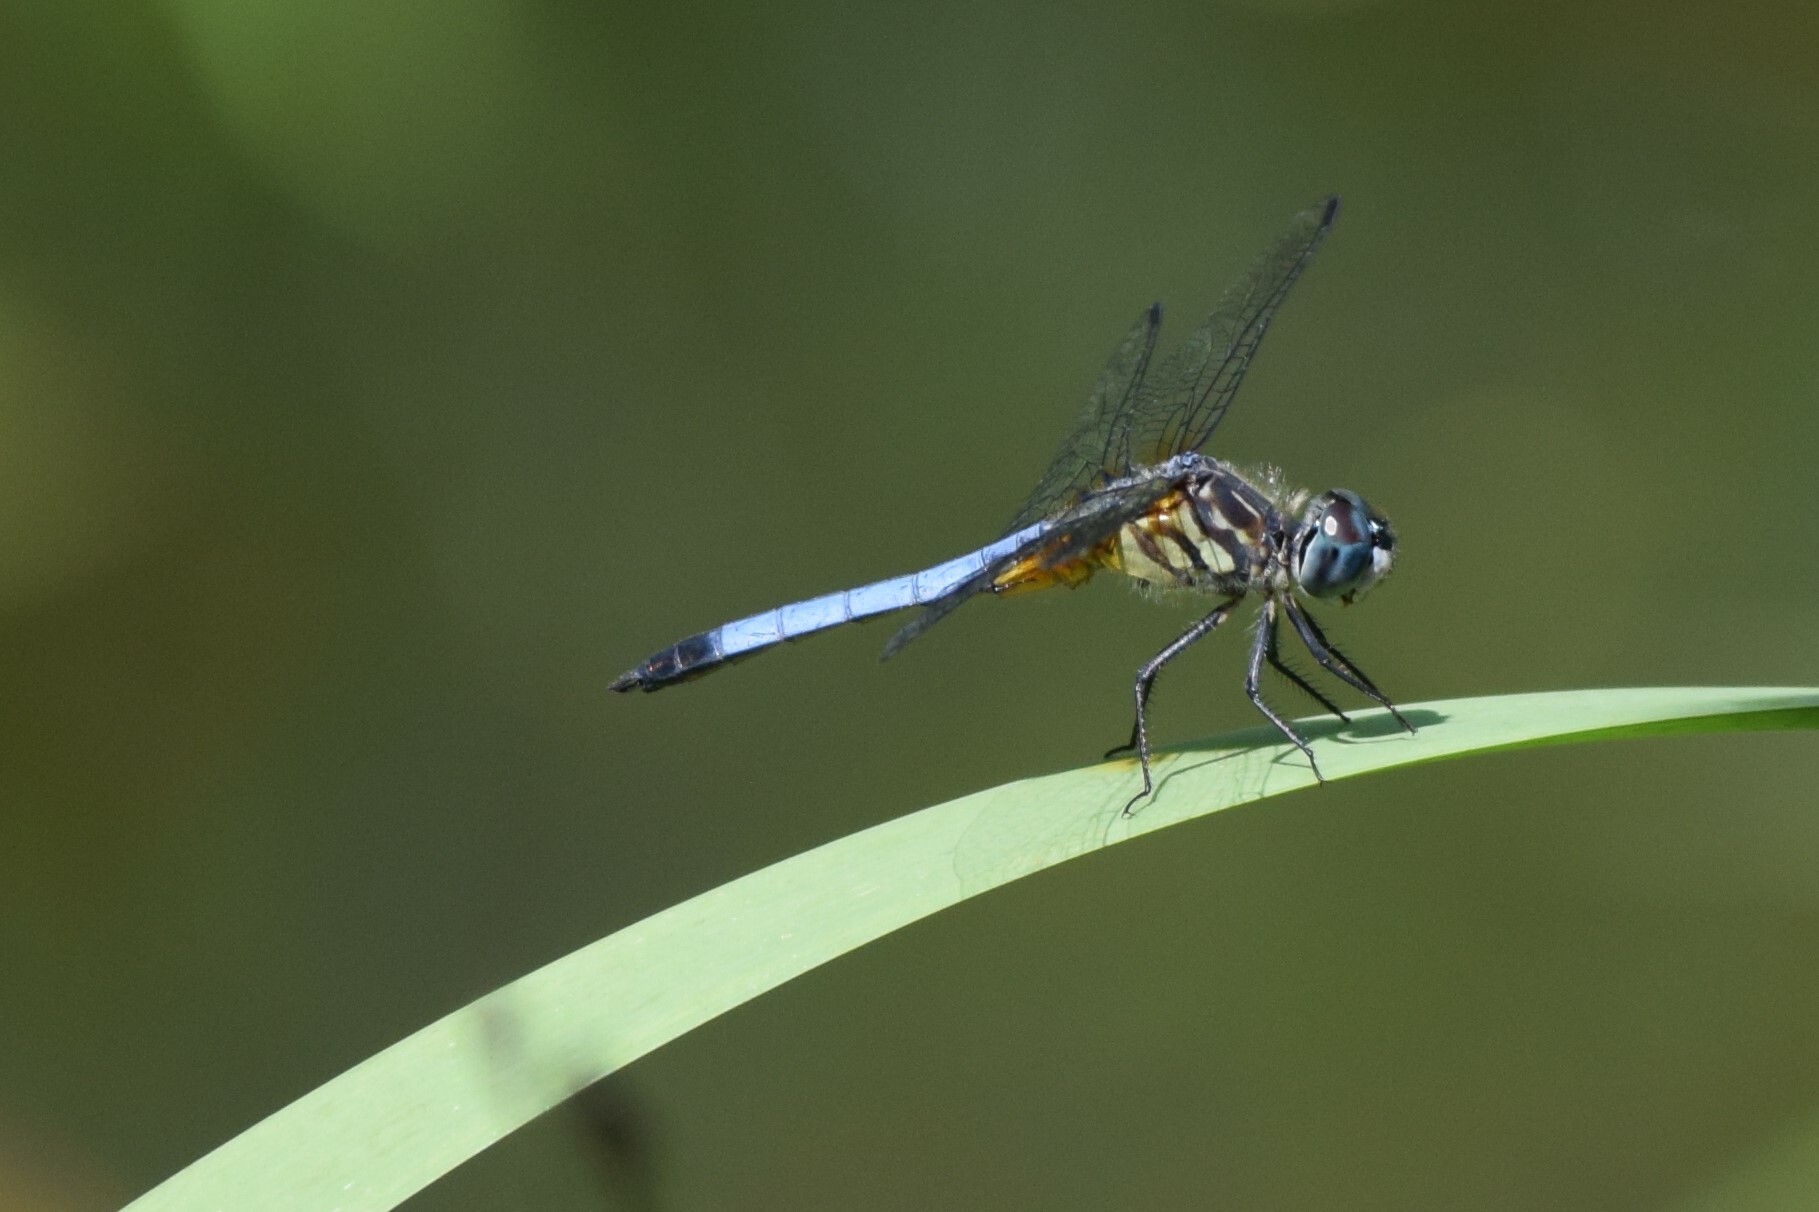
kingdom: Animalia
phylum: Arthropoda
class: Insecta
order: Odonata
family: Libellulidae
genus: Pachydiplax
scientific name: Pachydiplax longipennis
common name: Blue dasher
